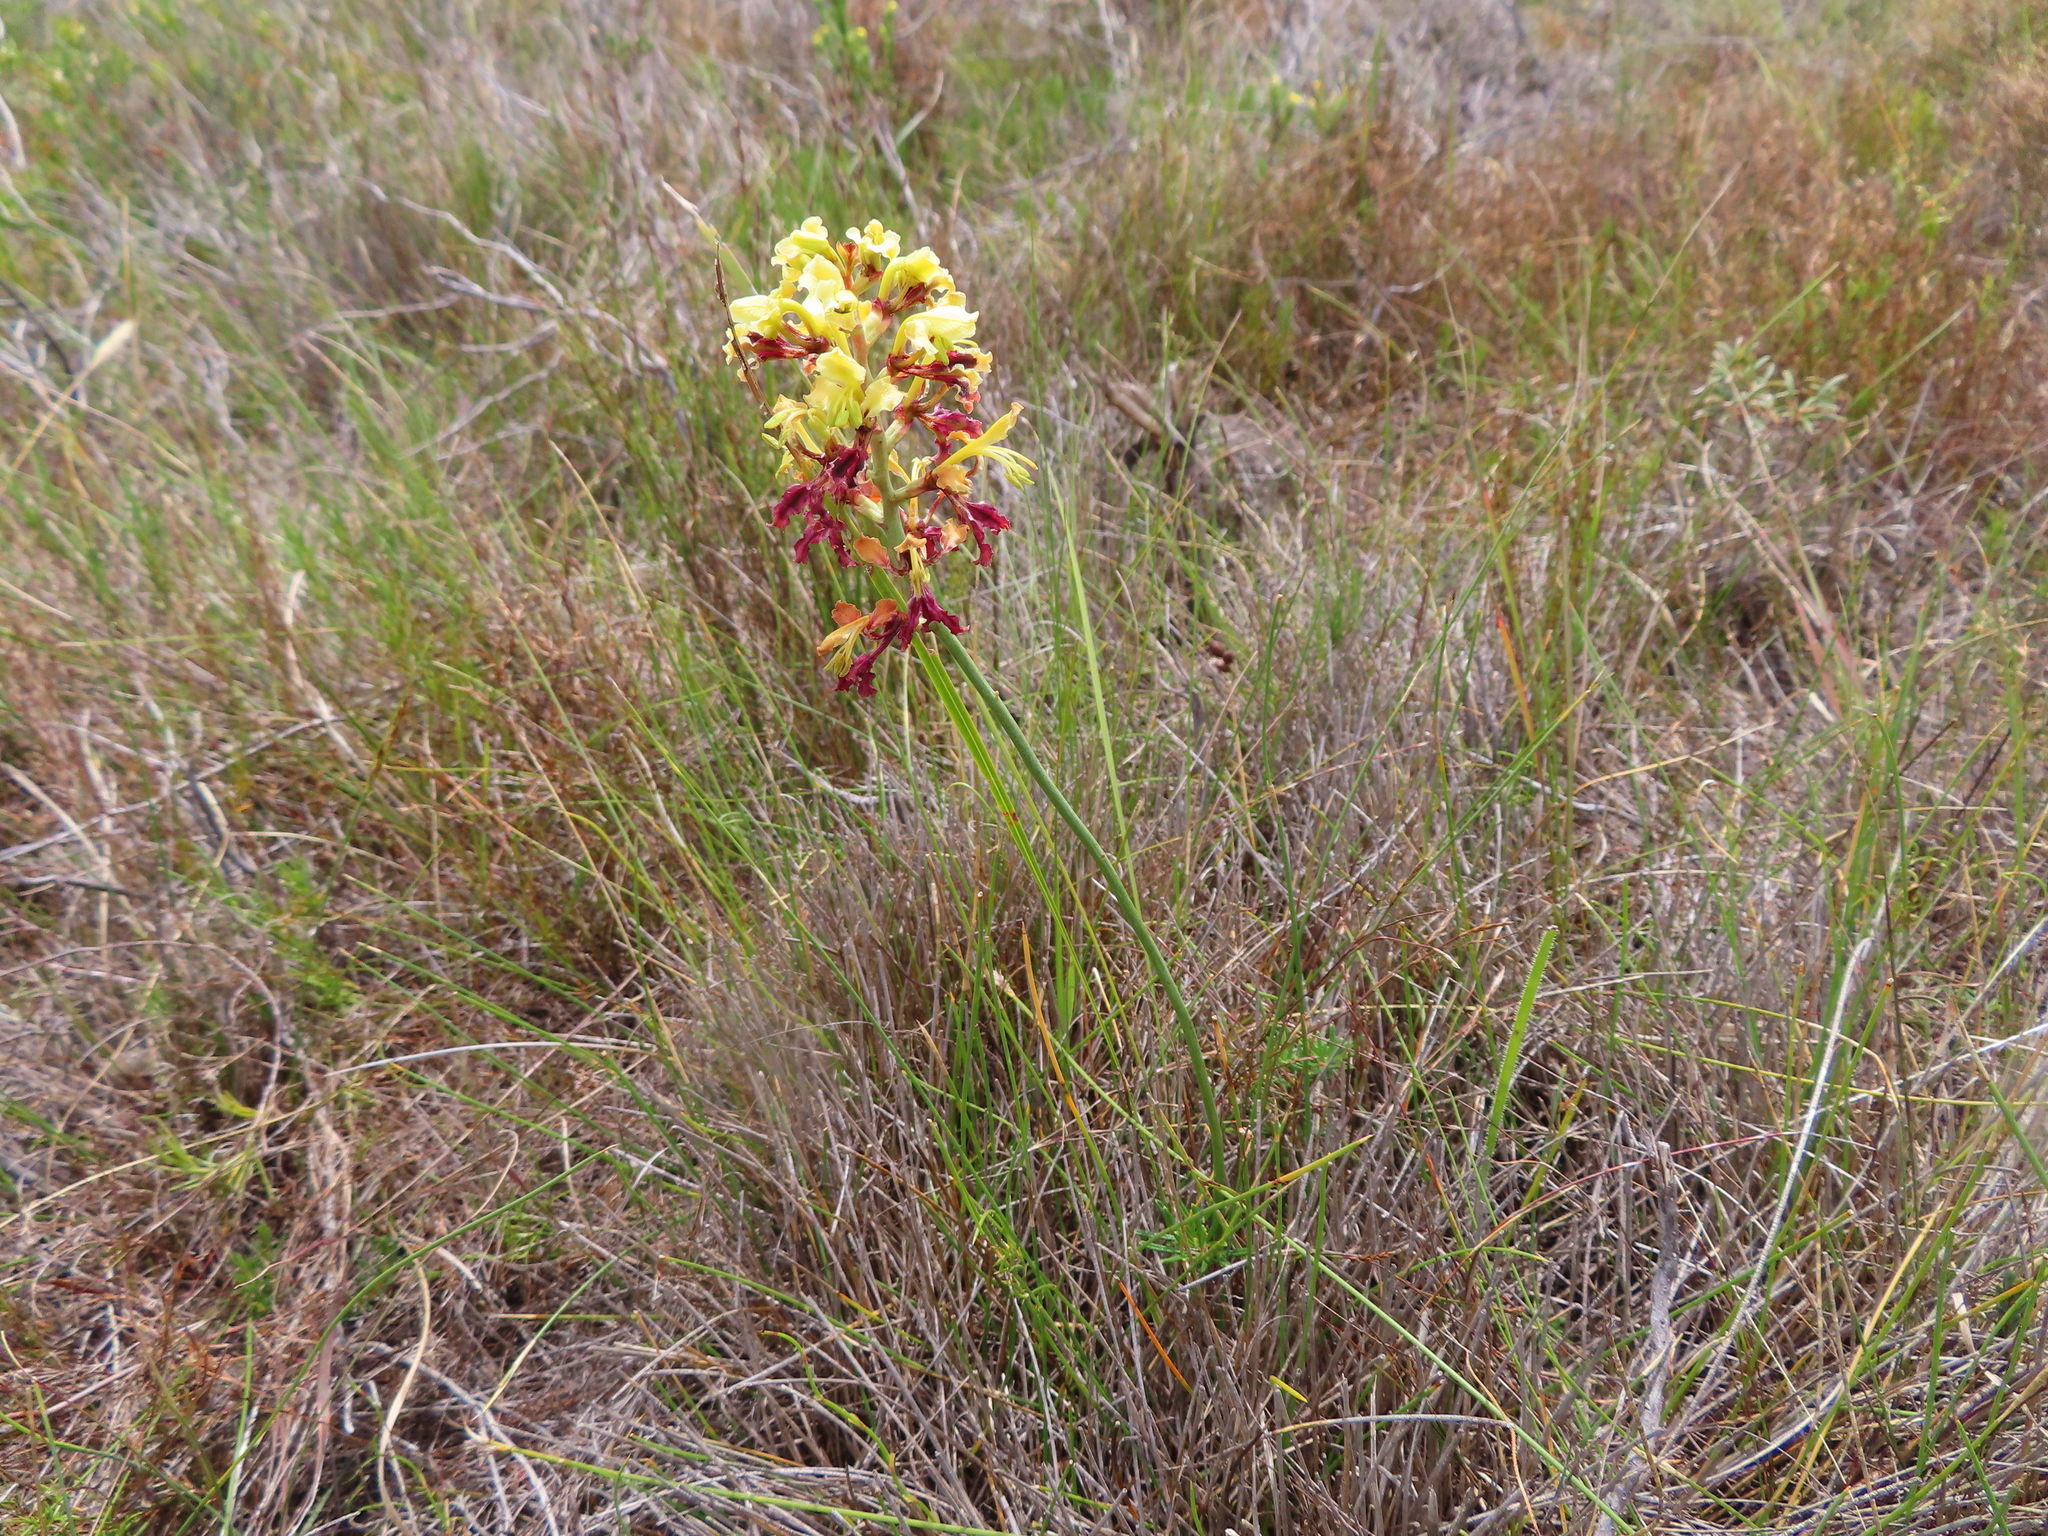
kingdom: Plantae
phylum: Tracheophyta
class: Liliopsida
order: Asparagales
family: Iridaceae
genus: Tritoniopsis
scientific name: Tritoniopsis parviflora
